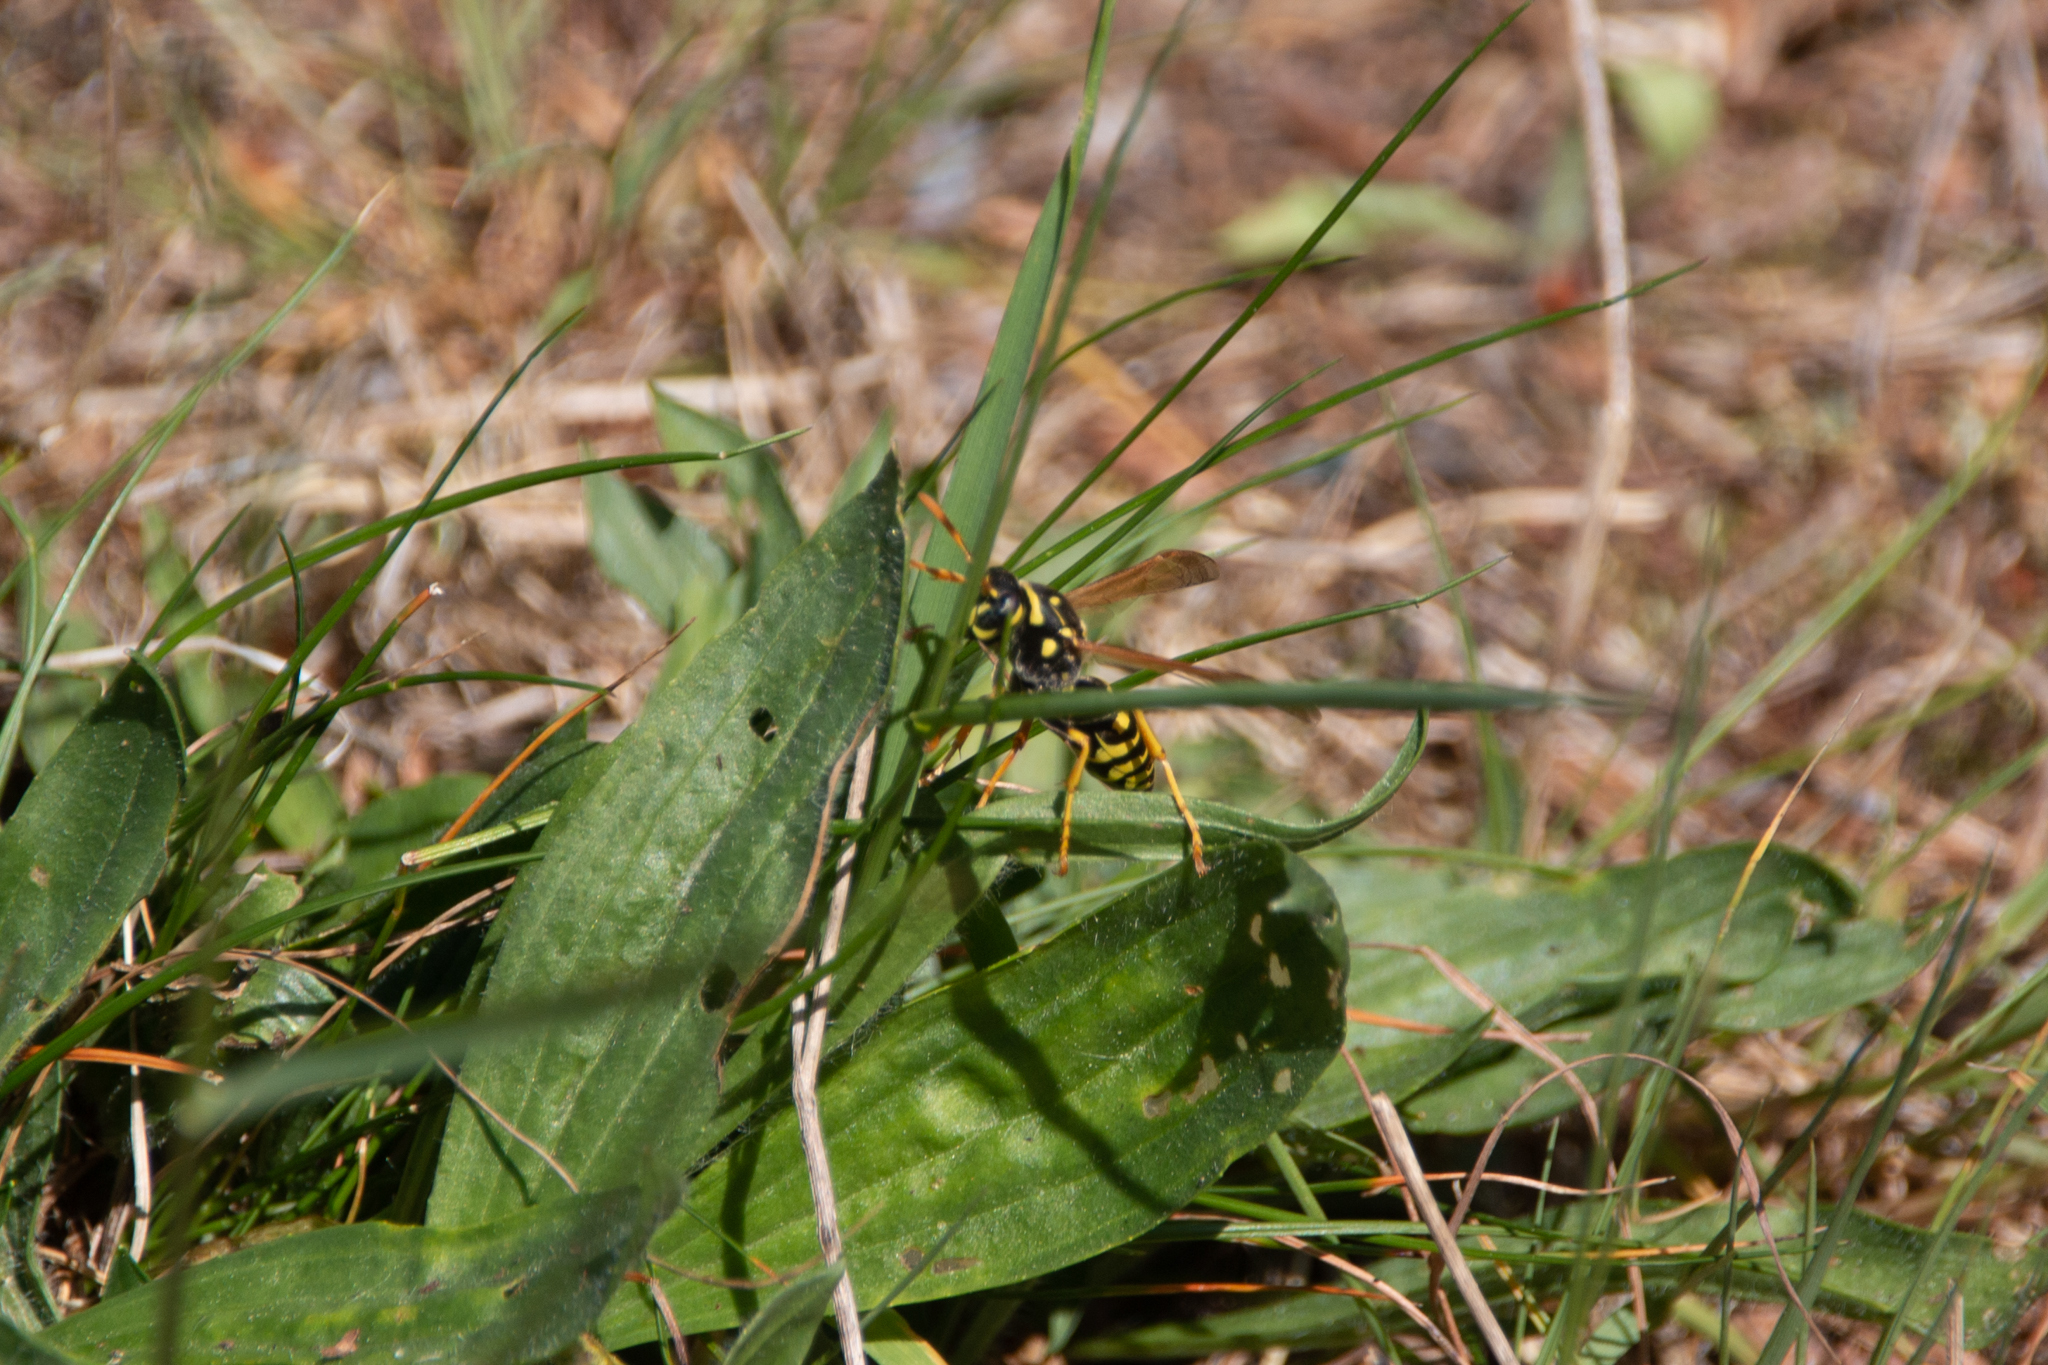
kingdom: Animalia
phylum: Arthropoda
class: Insecta
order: Hymenoptera
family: Eumenidae
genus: Polistes
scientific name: Polistes dominula
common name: Paper wasp
